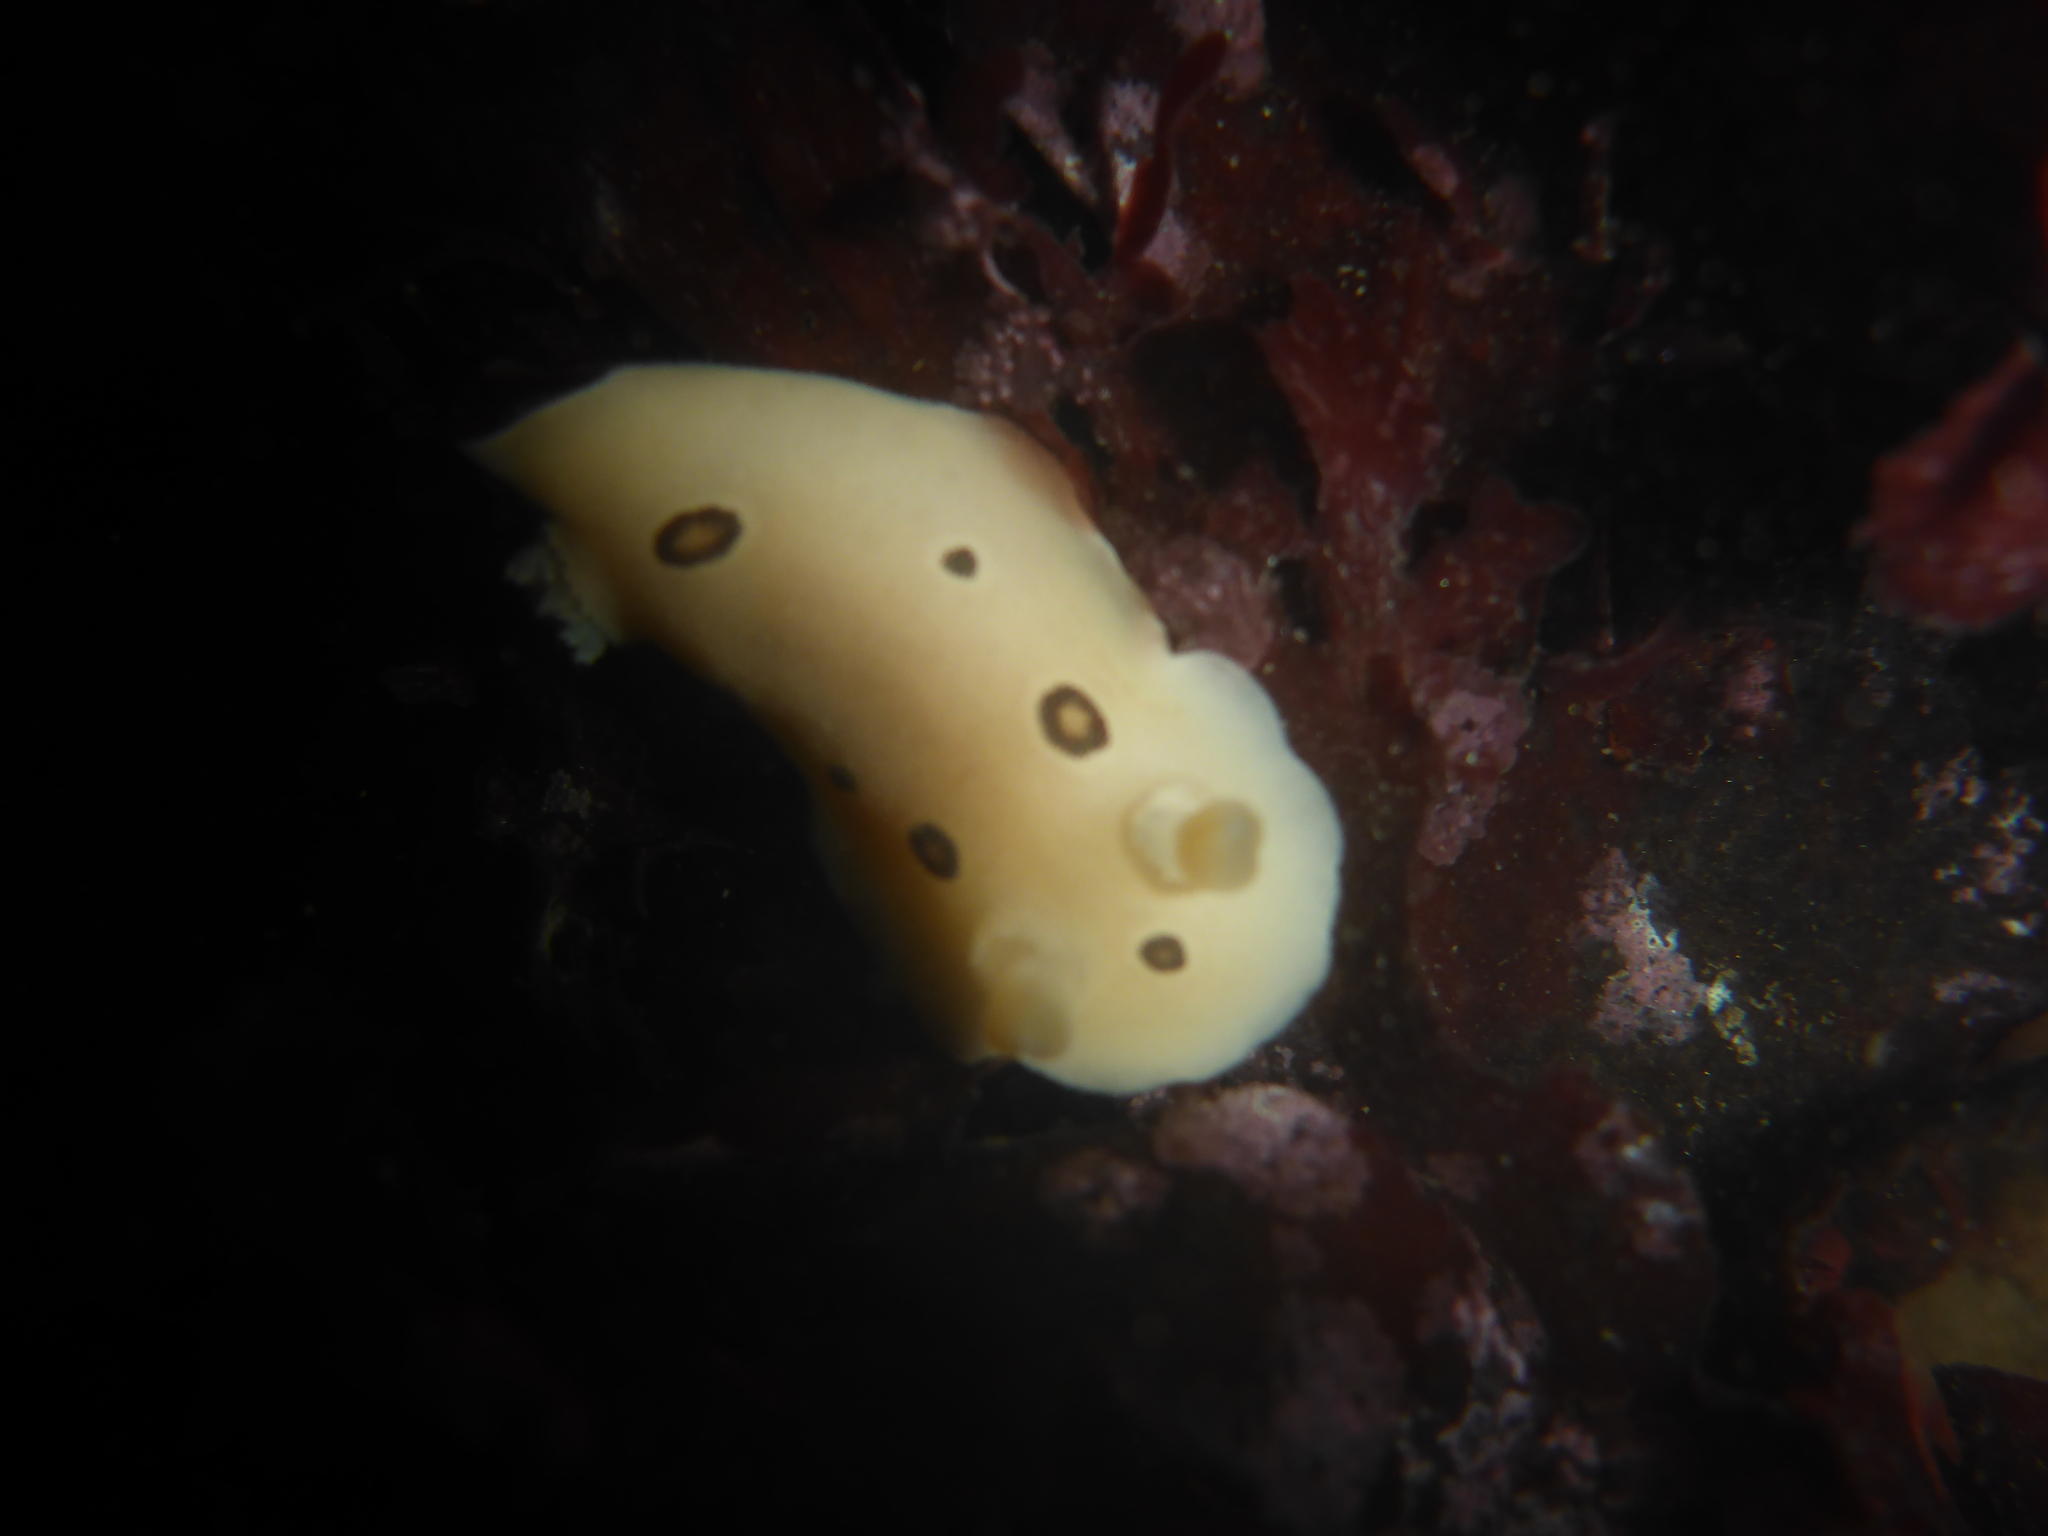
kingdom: Animalia
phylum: Mollusca
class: Gastropoda
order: Nudibranchia
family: Discodorididae
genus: Diaulula
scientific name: Diaulula sandiegensis
